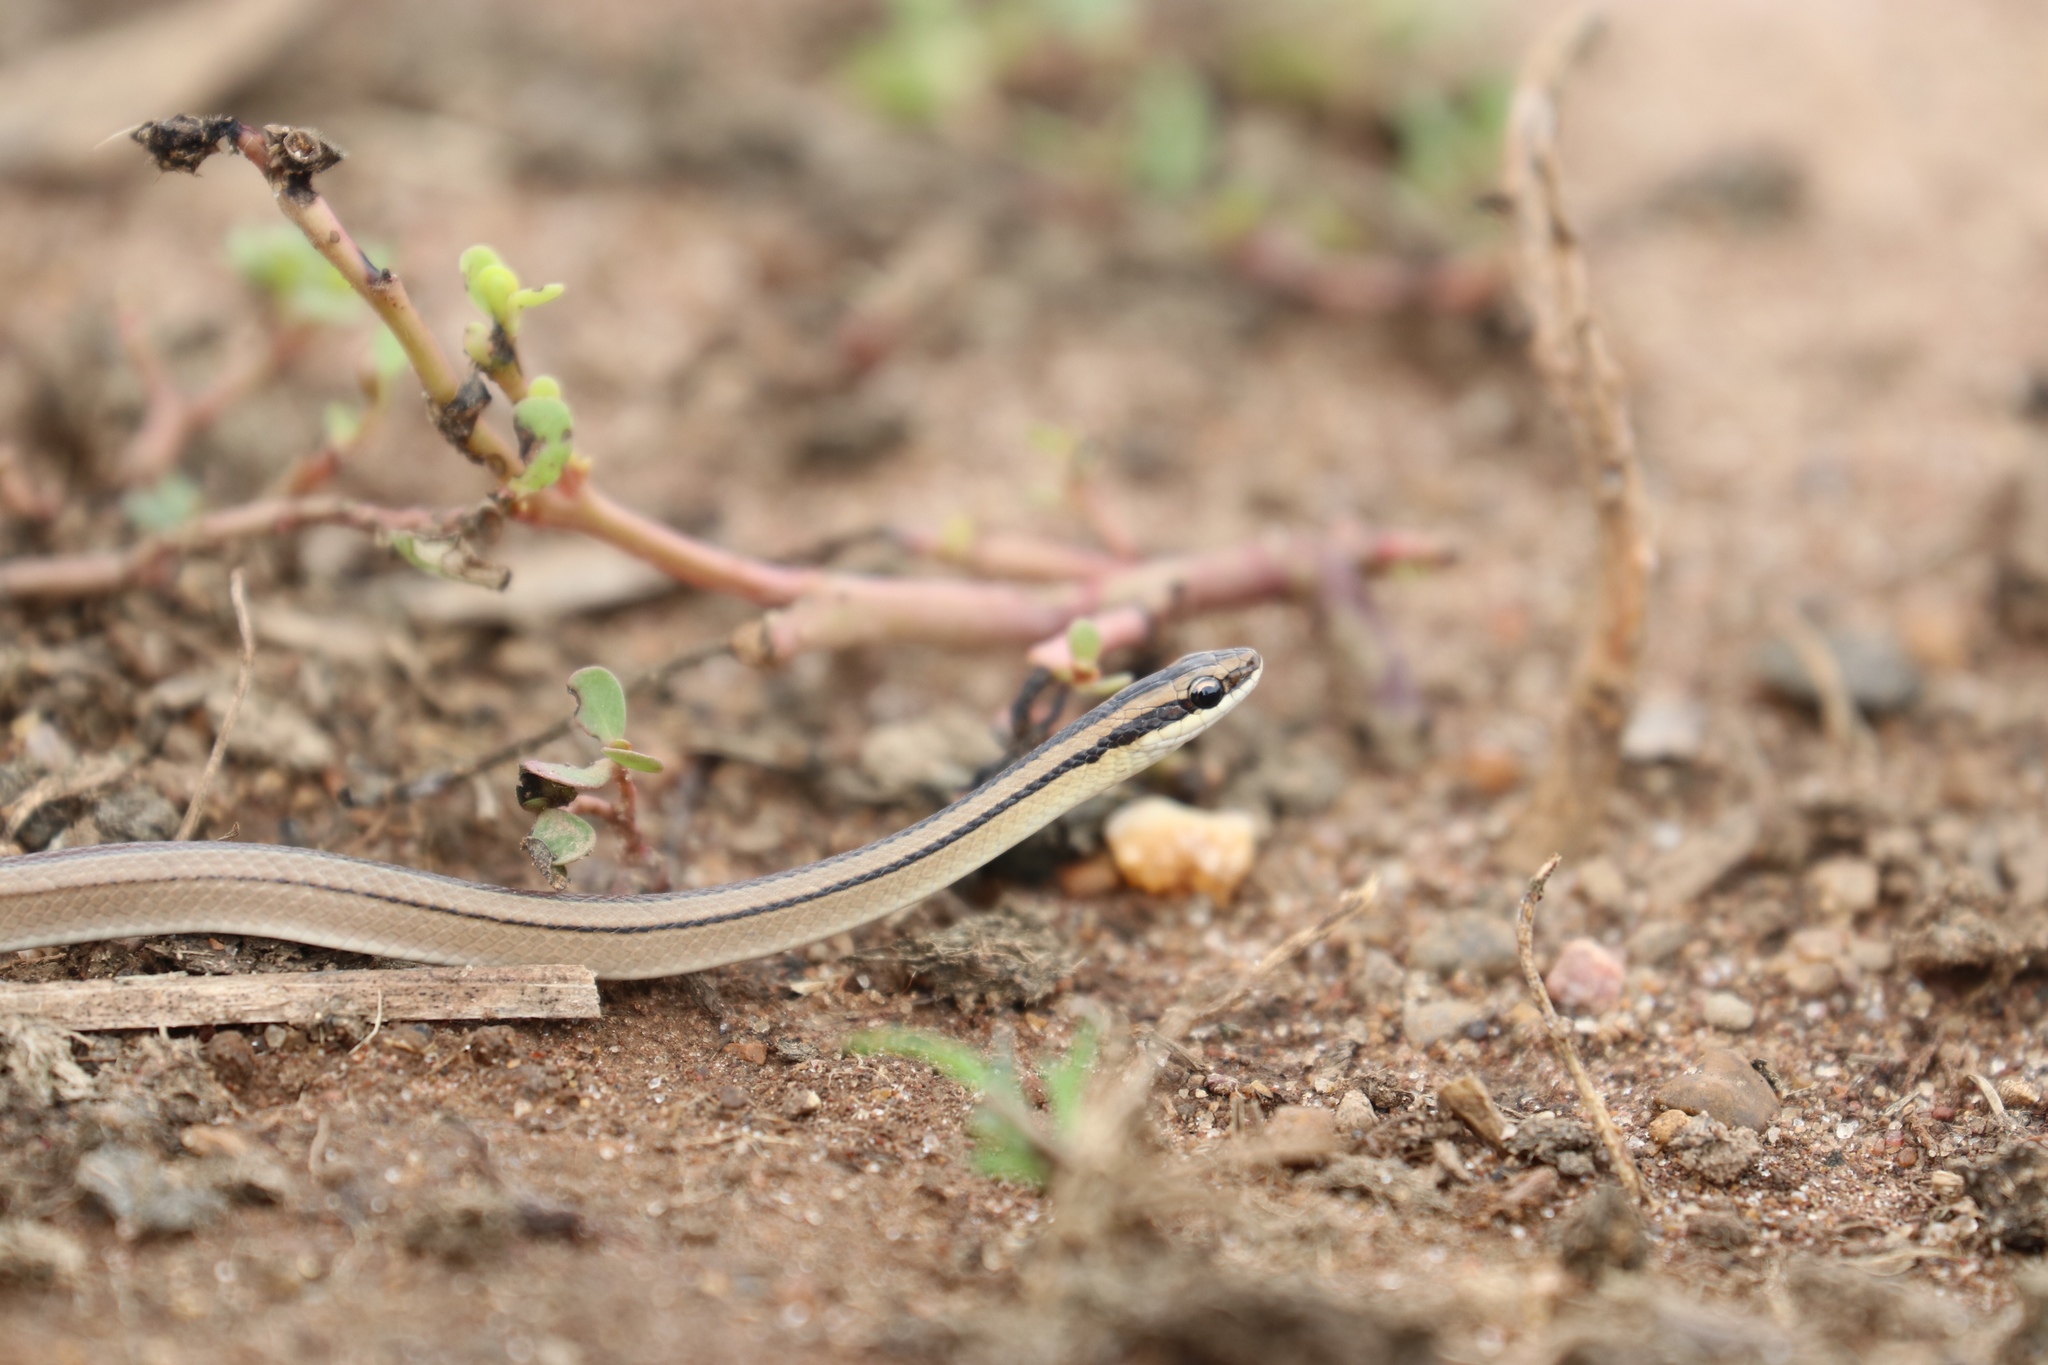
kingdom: Animalia
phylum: Chordata
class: Squamata
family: Colubridae
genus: Lygophis
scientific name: Lygophis lineatus
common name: Lined ground snake
